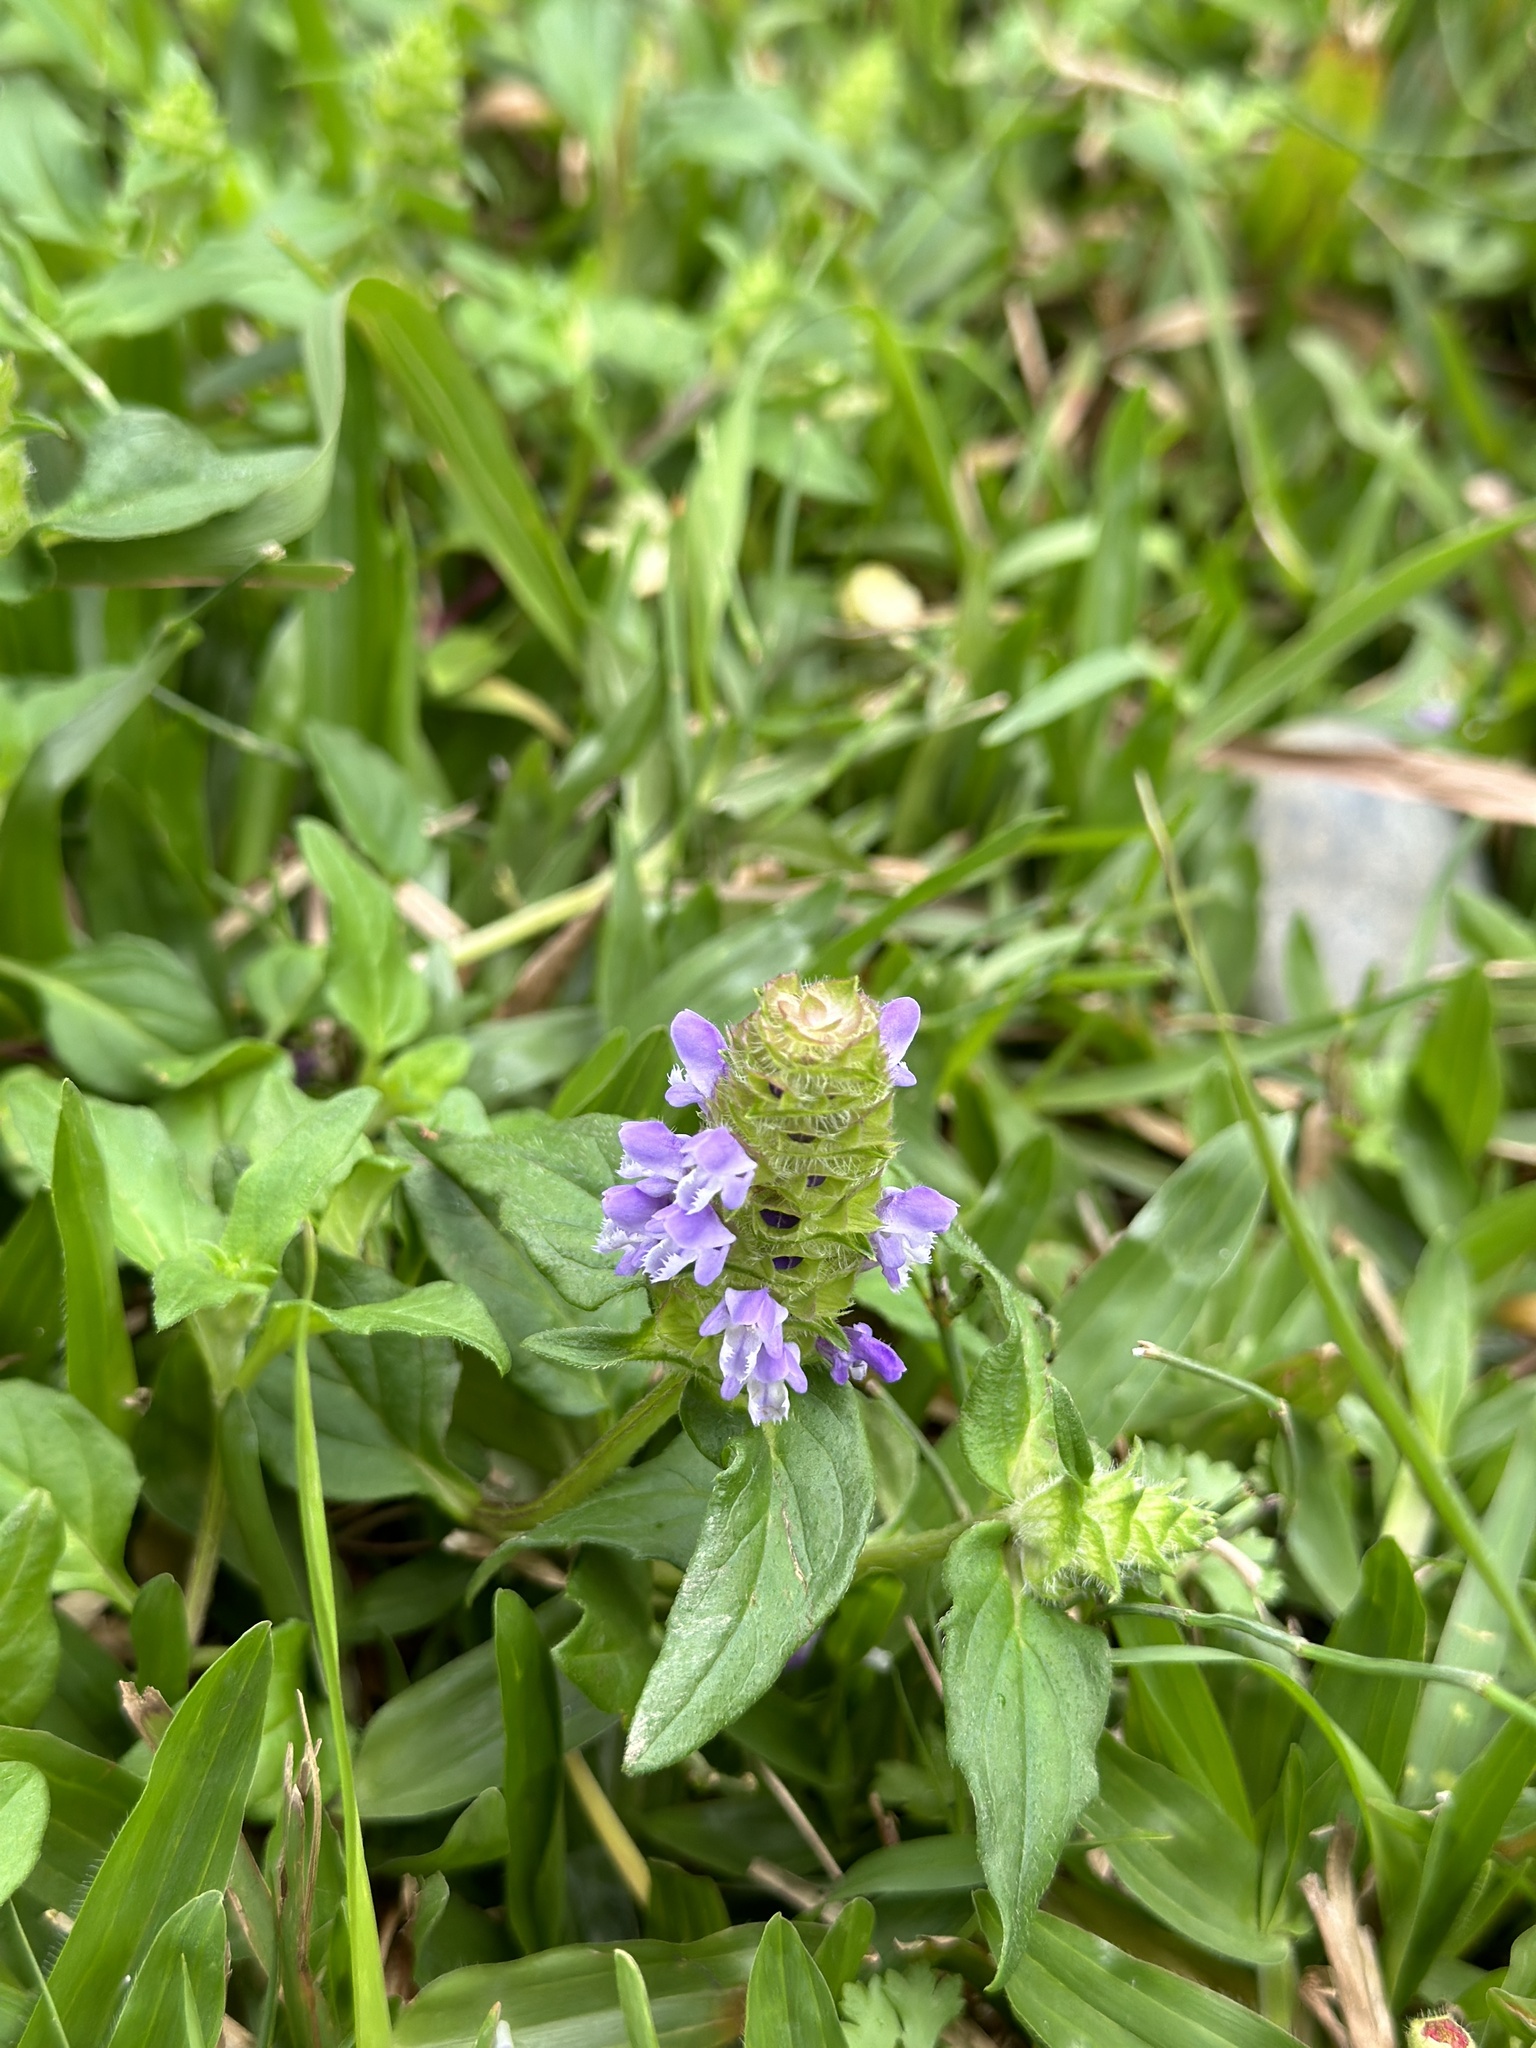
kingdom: Plantae
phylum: Tracheophyta
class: Magnoliopsida
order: Lamiales
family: Lamiaceae
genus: Prunella
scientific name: Prunella vulgaris
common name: Heal-all
